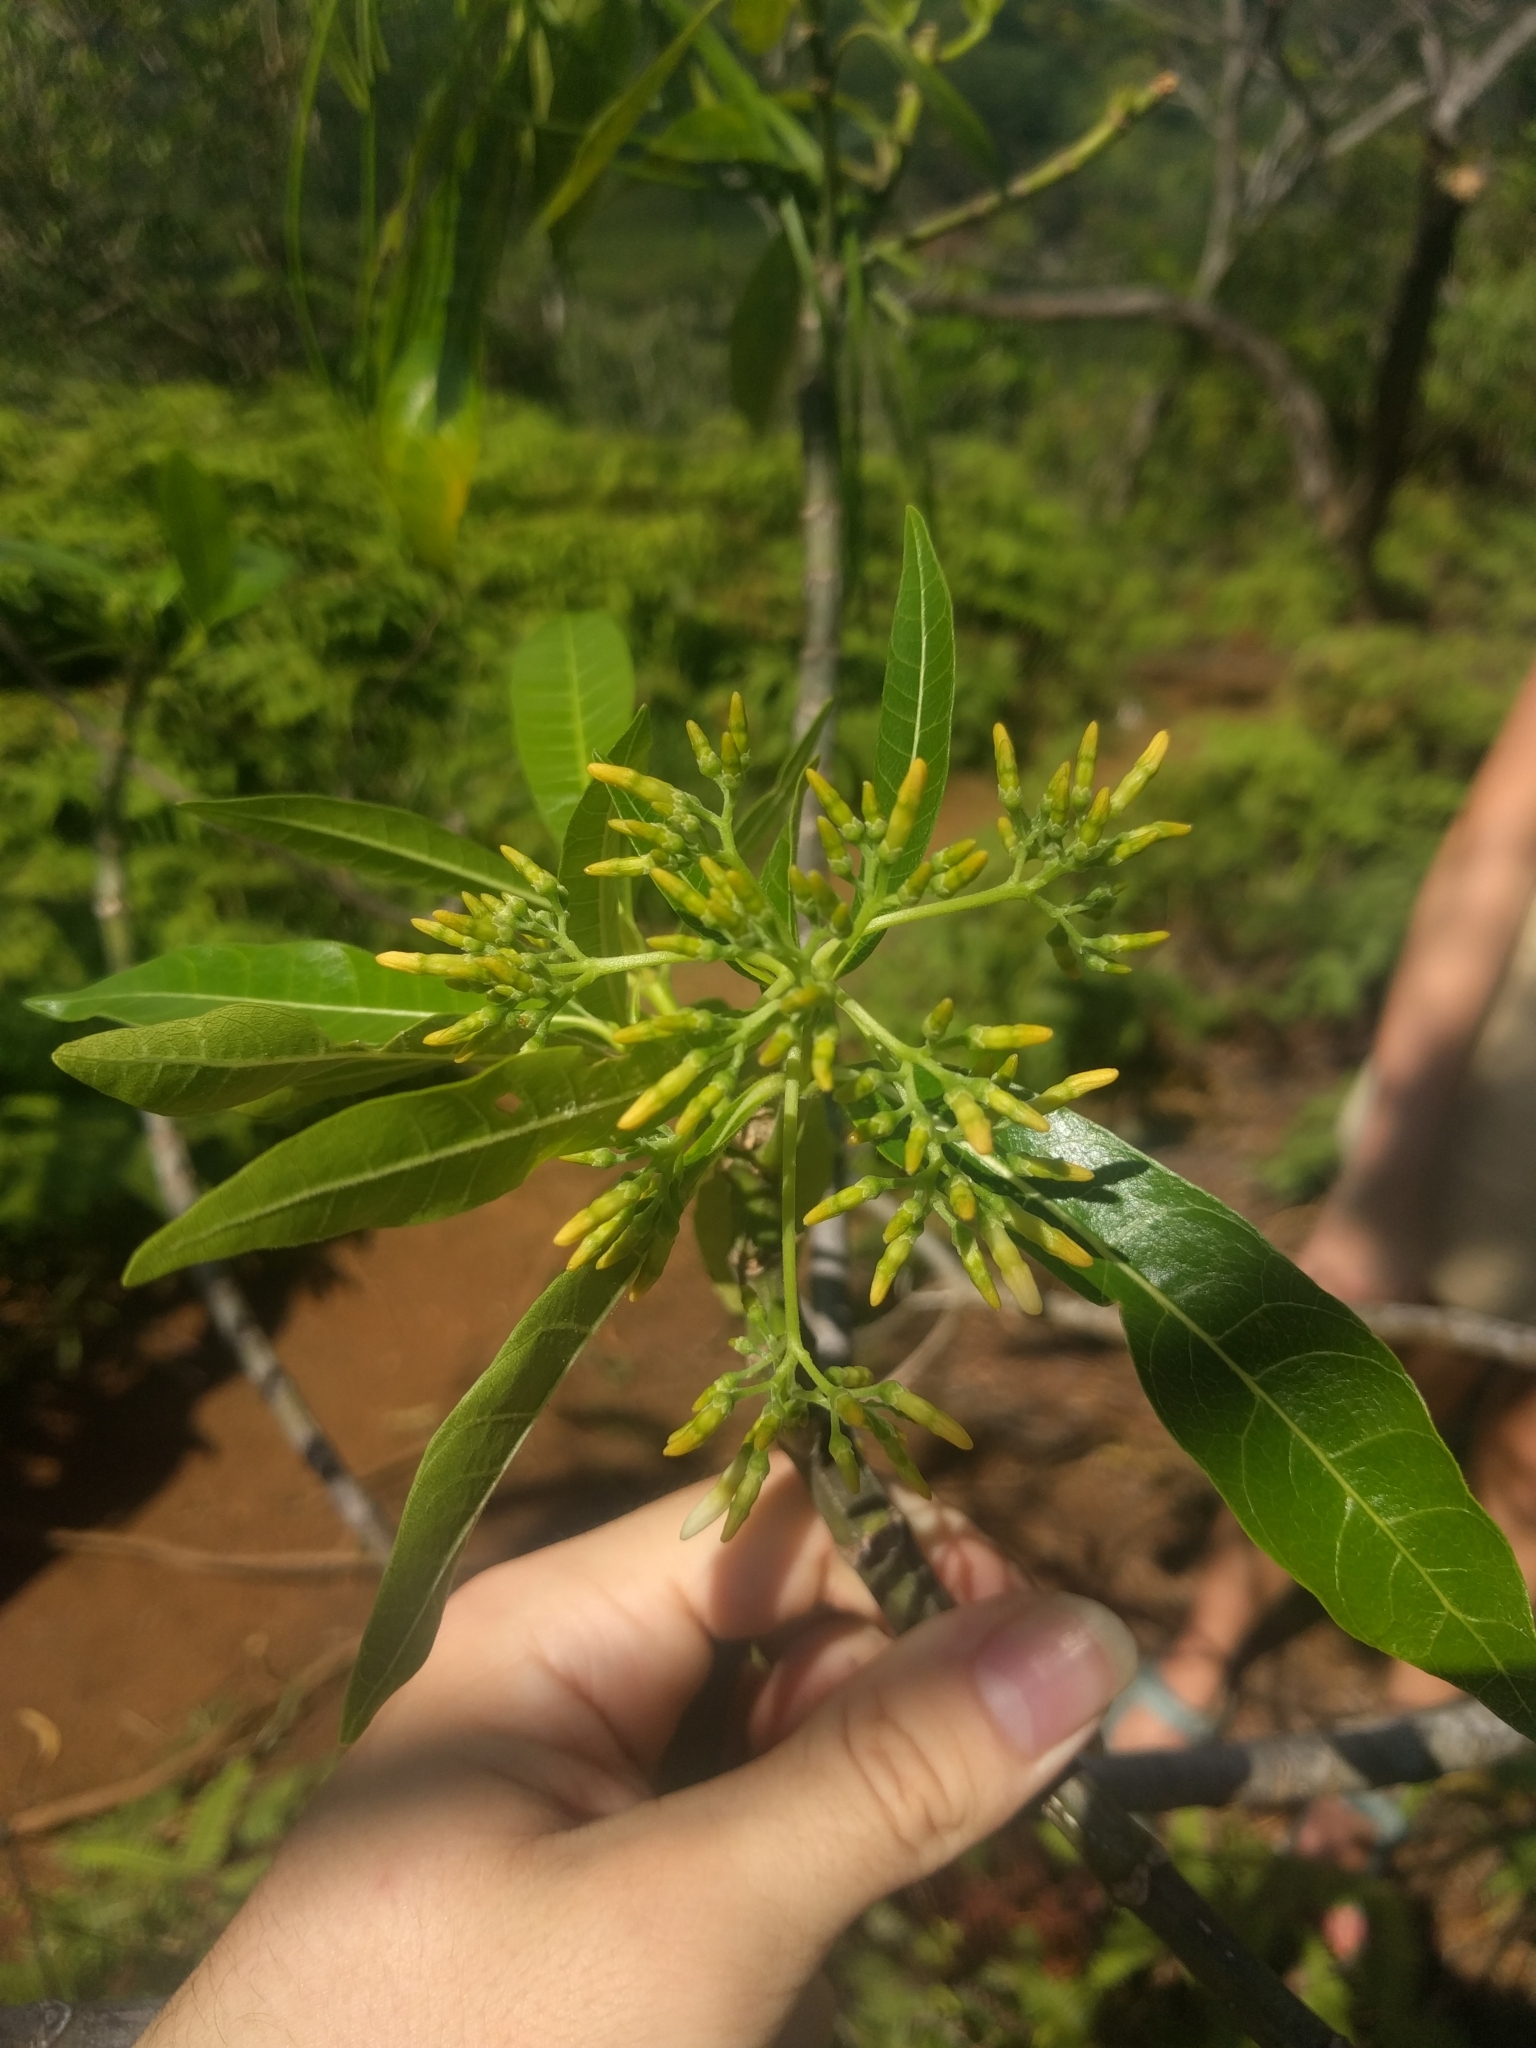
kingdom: Plantae
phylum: Tracheophyta
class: Magnoliopsida
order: Gentianales
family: Apocynaceae
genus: Alstonia
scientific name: Alstonia macrophylla
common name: Deviltree
